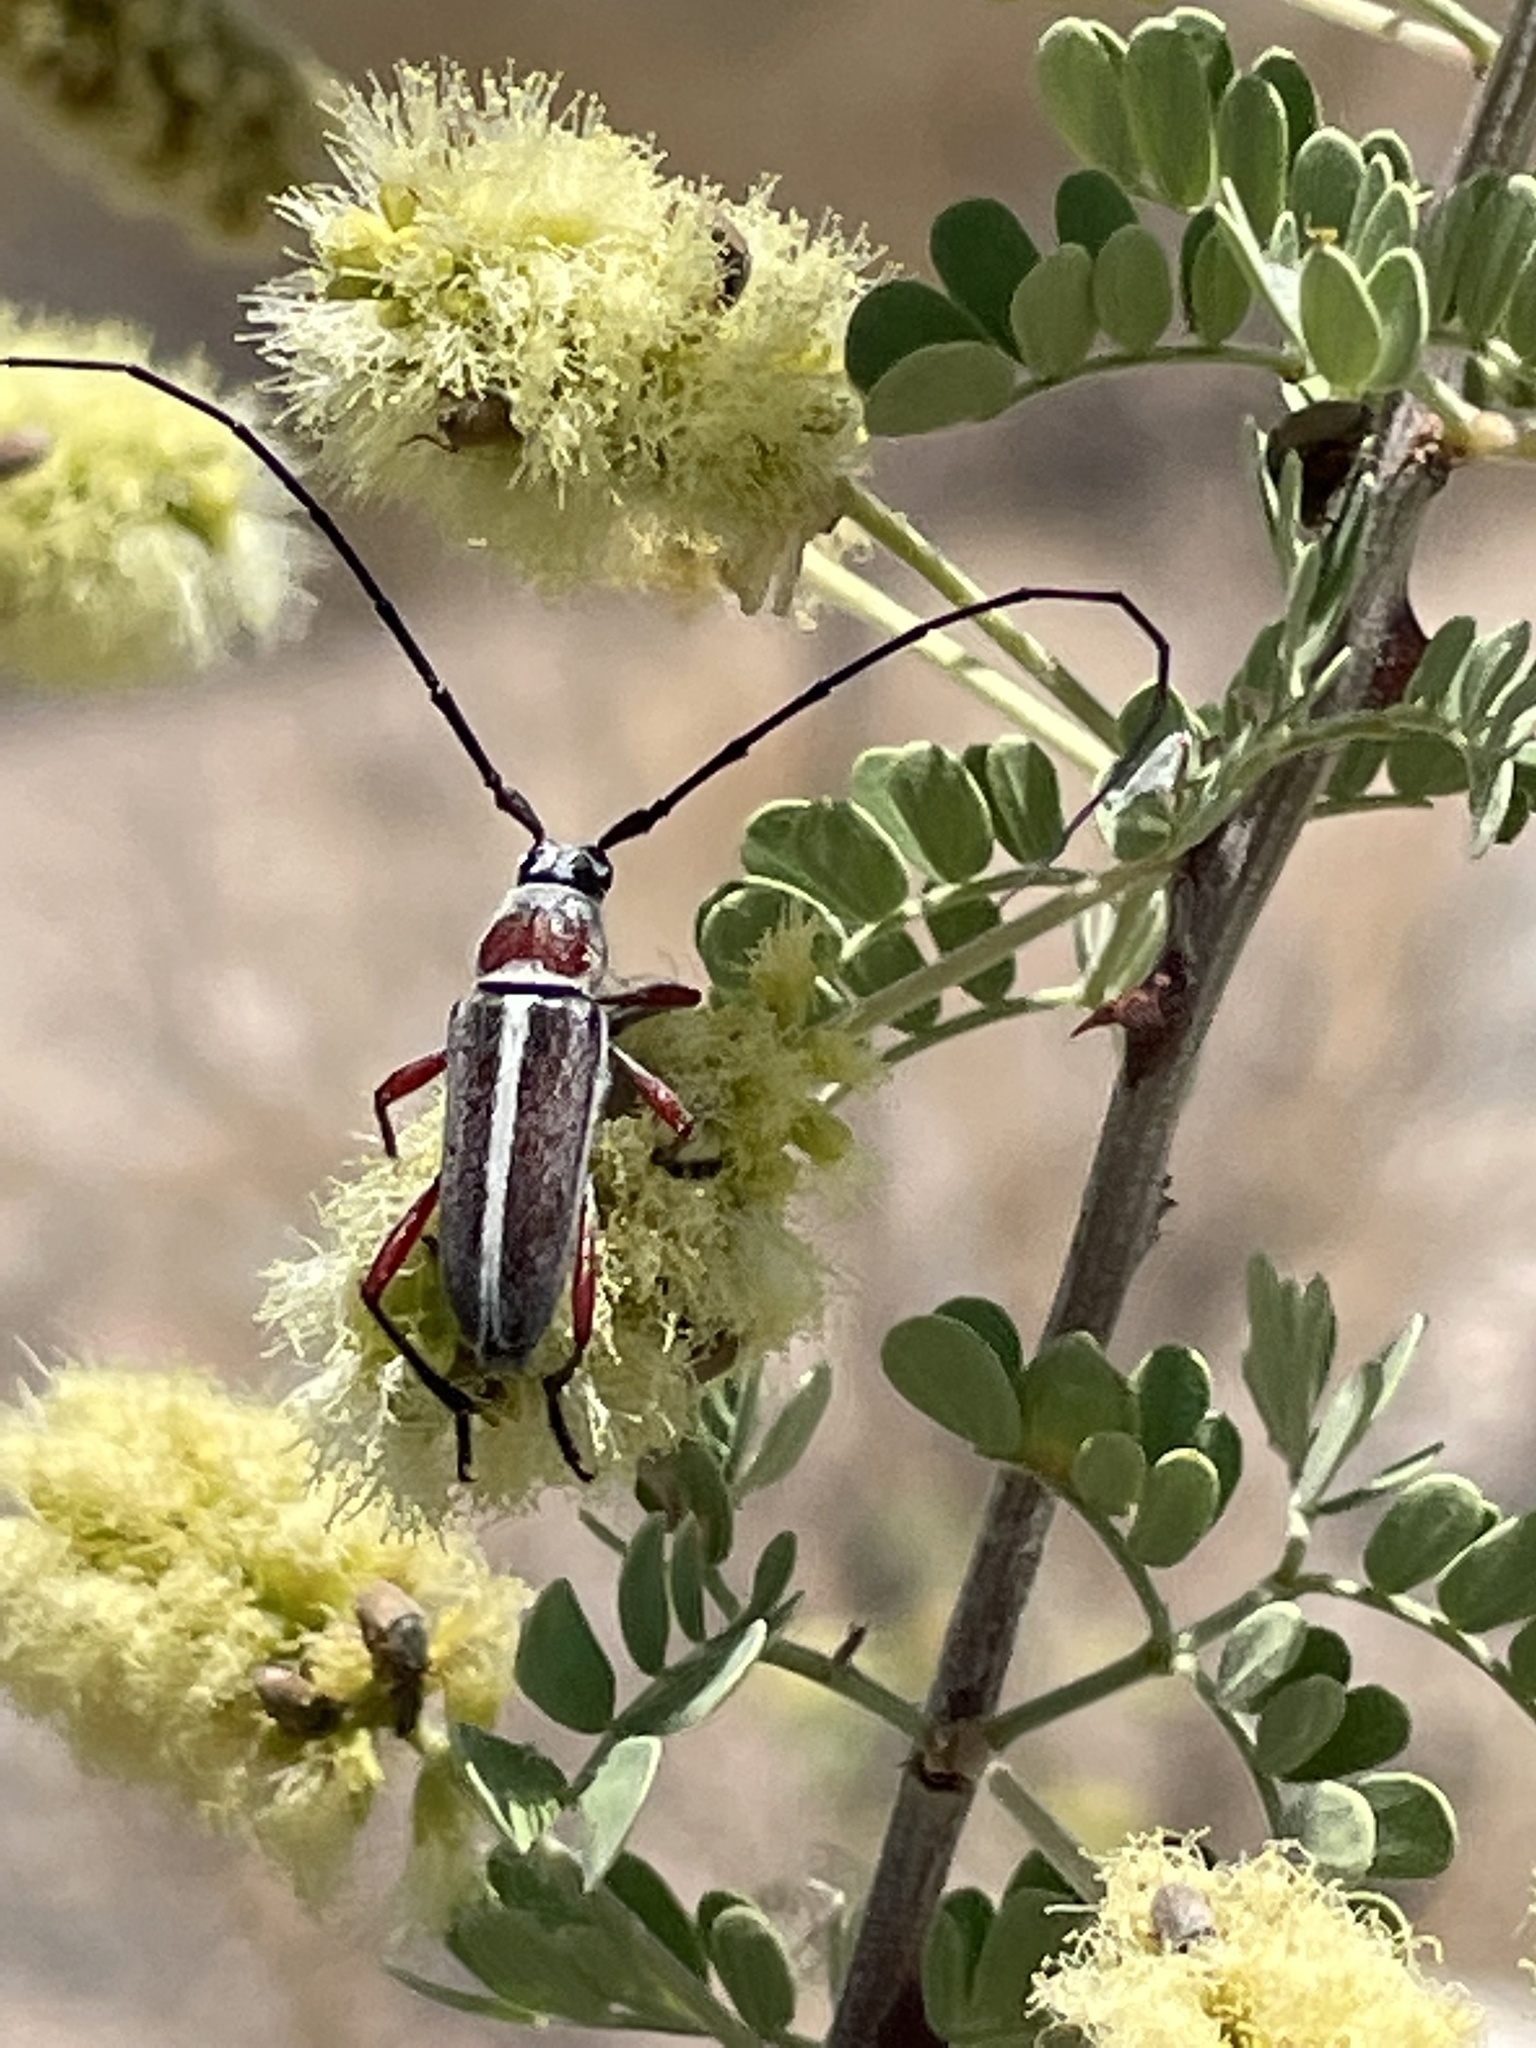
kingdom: Animalia
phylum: Arthropoda
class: Insecta
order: Coleoptera
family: Cerambycidae
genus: Plionoma
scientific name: Plionoma rubens
